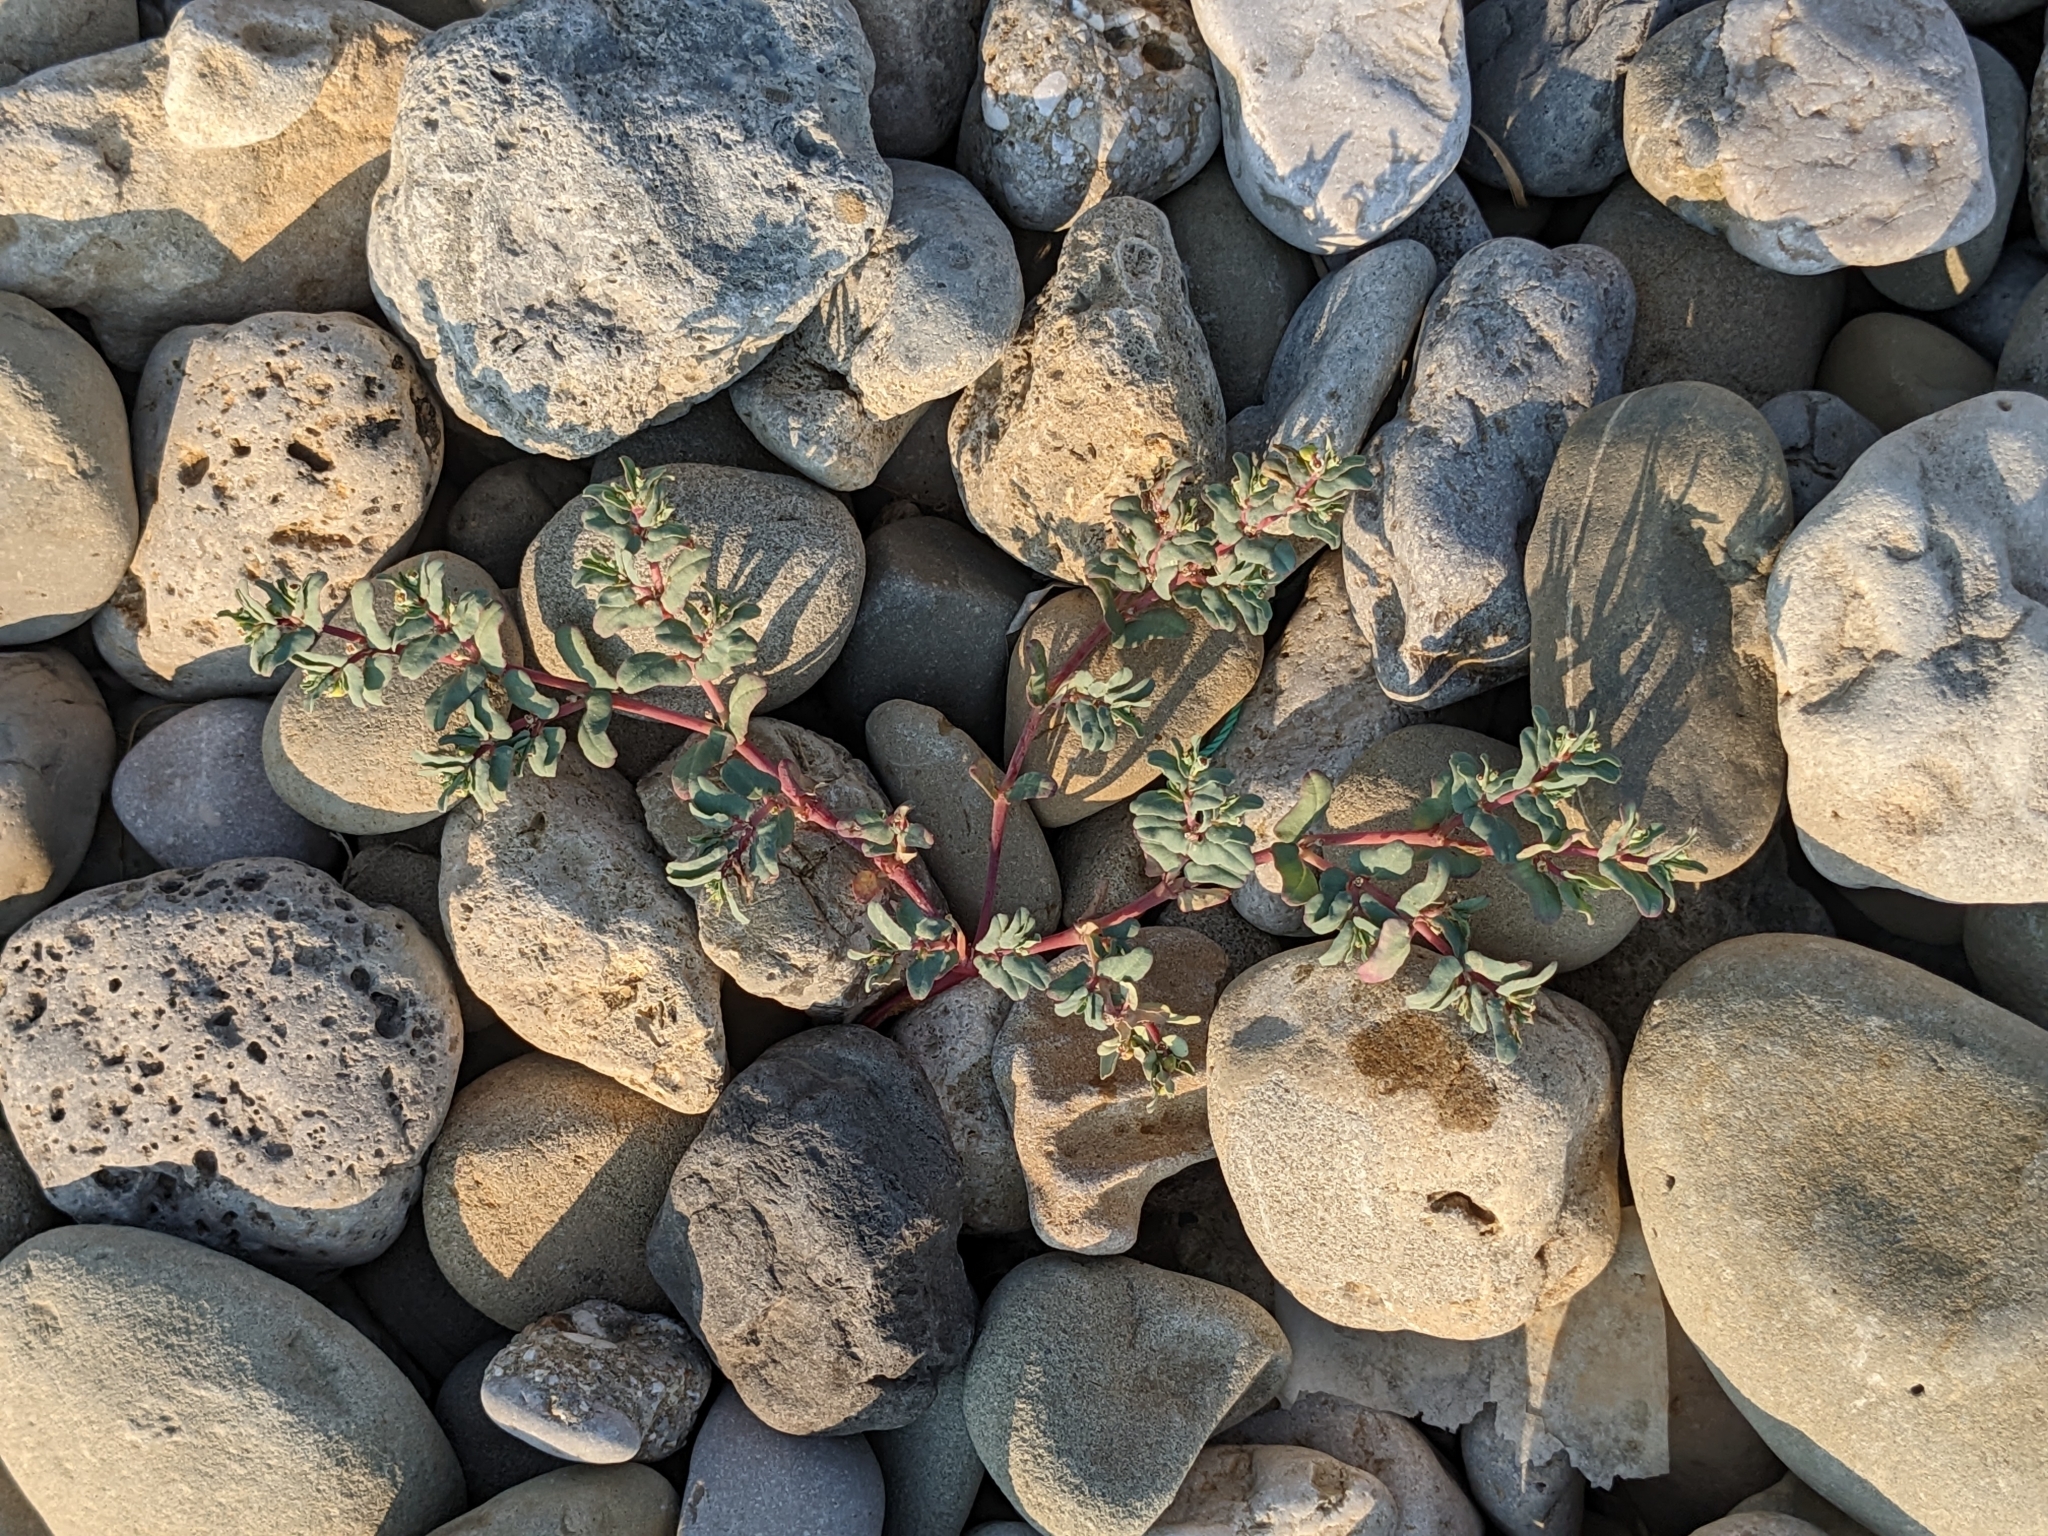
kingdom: Plantae
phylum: Tracheophyta
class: Magnoliopsida
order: Malpighiales
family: Euphorbiaceae
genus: Euphorbia
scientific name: Euphorbia peplis
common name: Purple spurge
